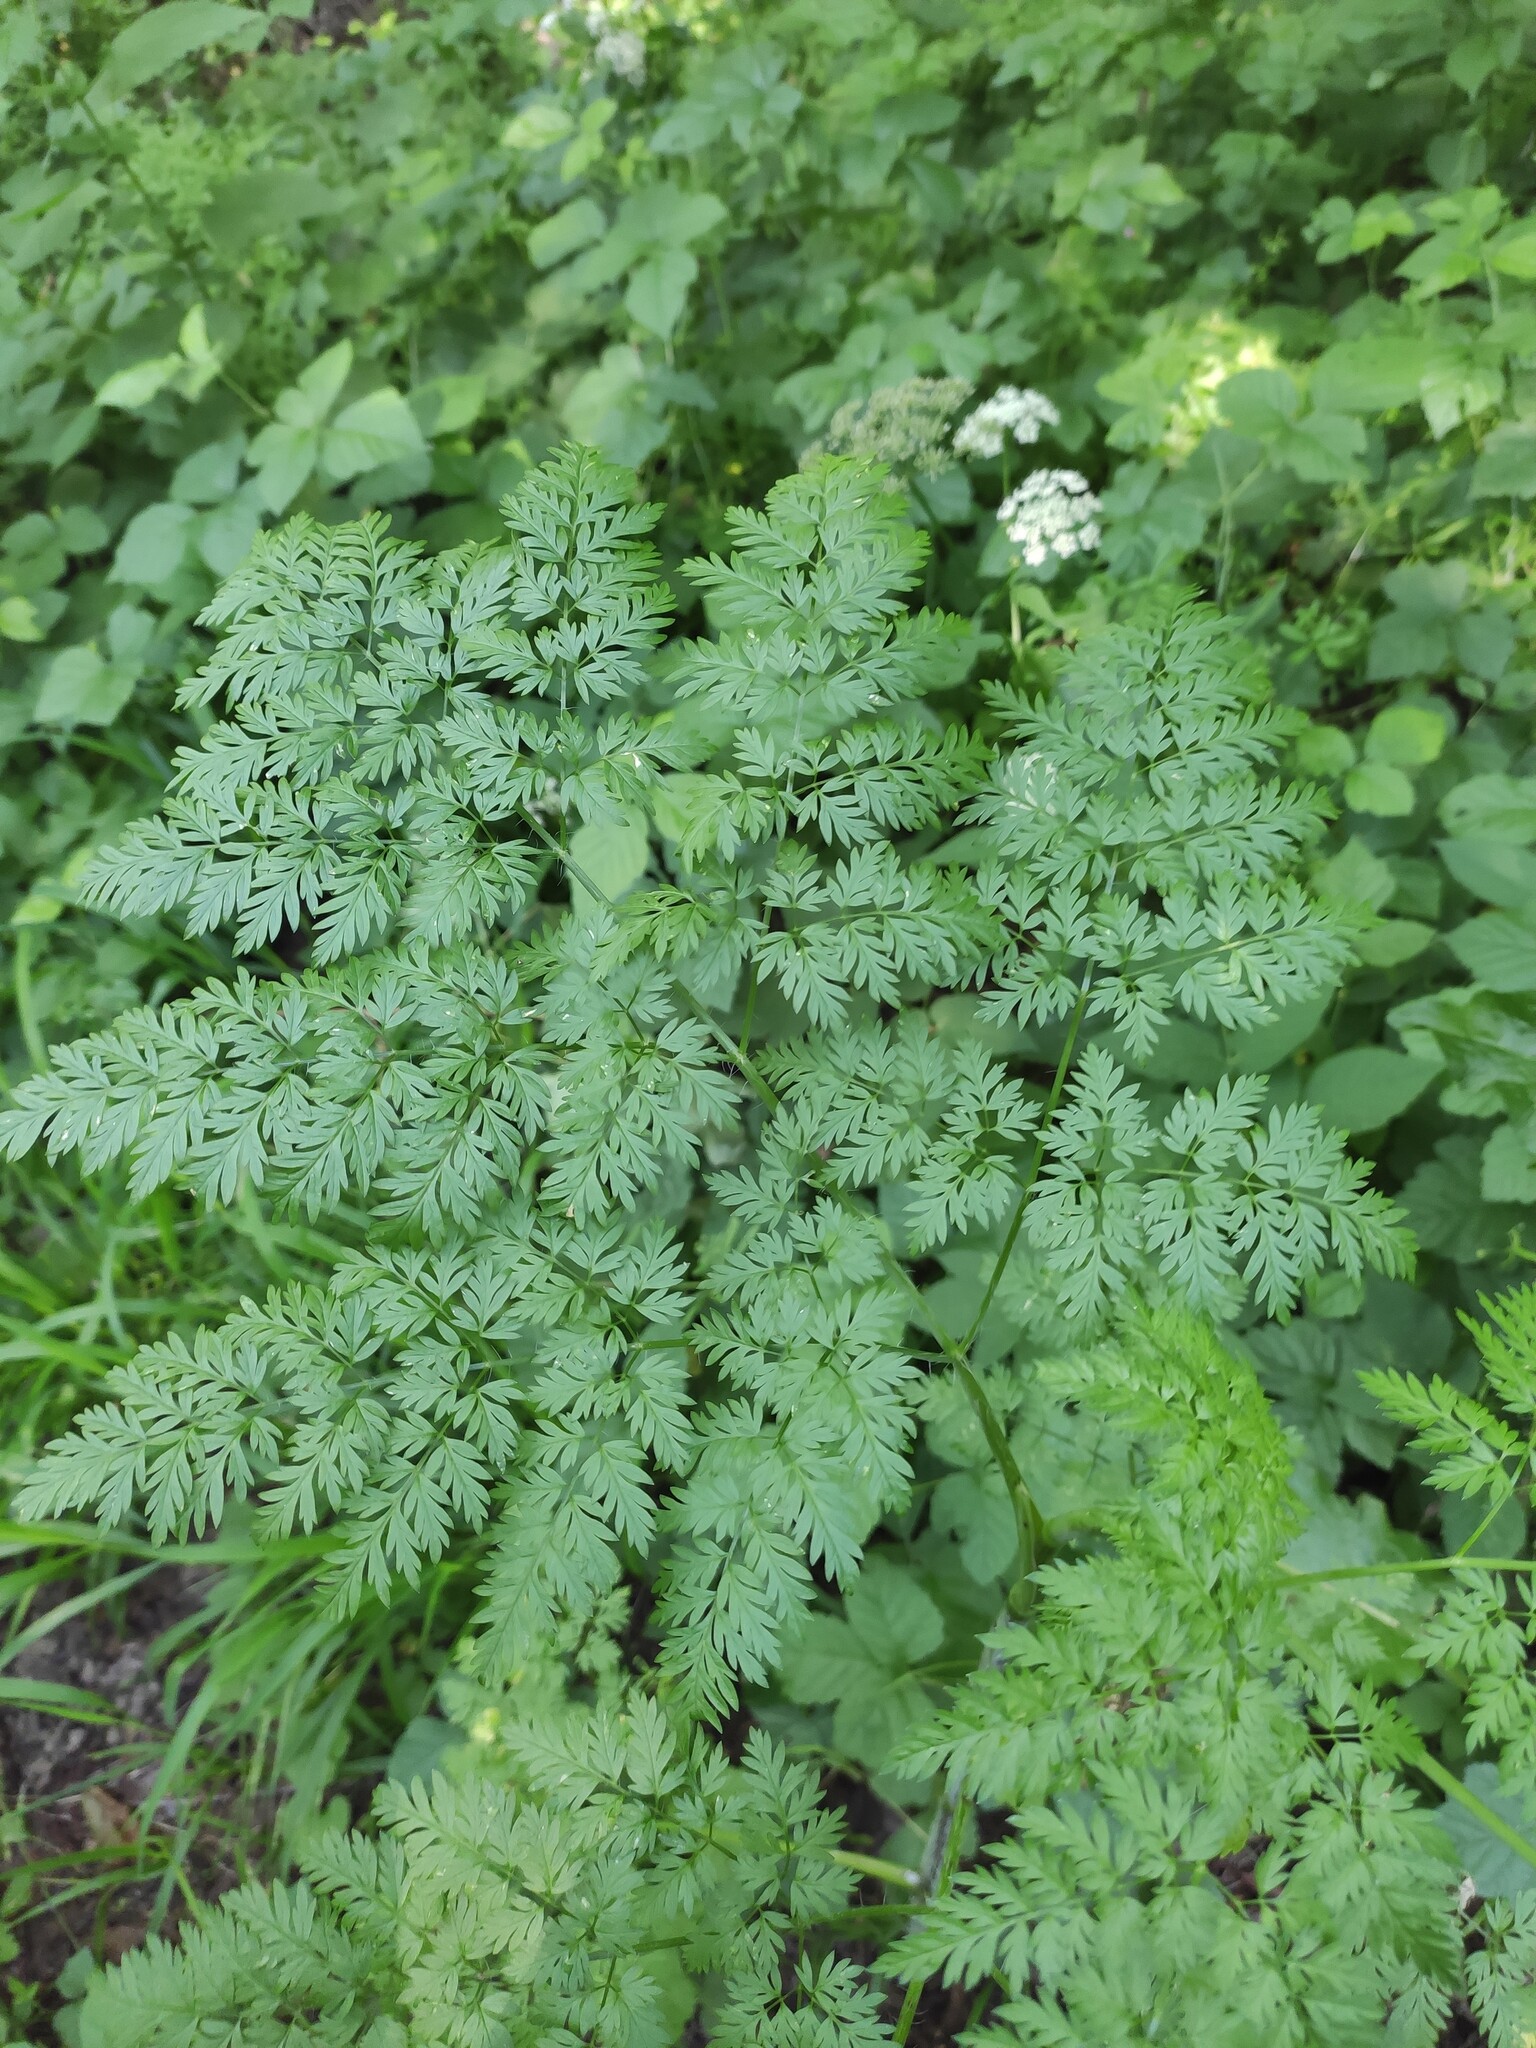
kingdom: Plantae
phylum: Tracheophyta
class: Magnoliopsida
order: Apiales
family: Apiaceae
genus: Aegopodium
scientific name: Aegopodium podagraria
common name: Ground-elder
